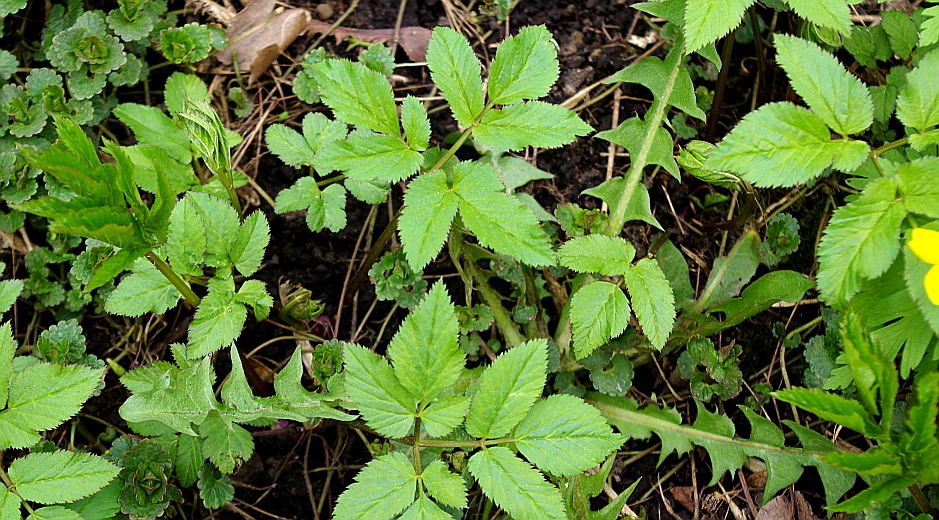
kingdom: Plantae
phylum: Tracheophyta
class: Magnoliopsida
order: Apiales
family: Apiaceae
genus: Aegopodium
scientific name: Aegopodium podagraria
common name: Ground-elder
